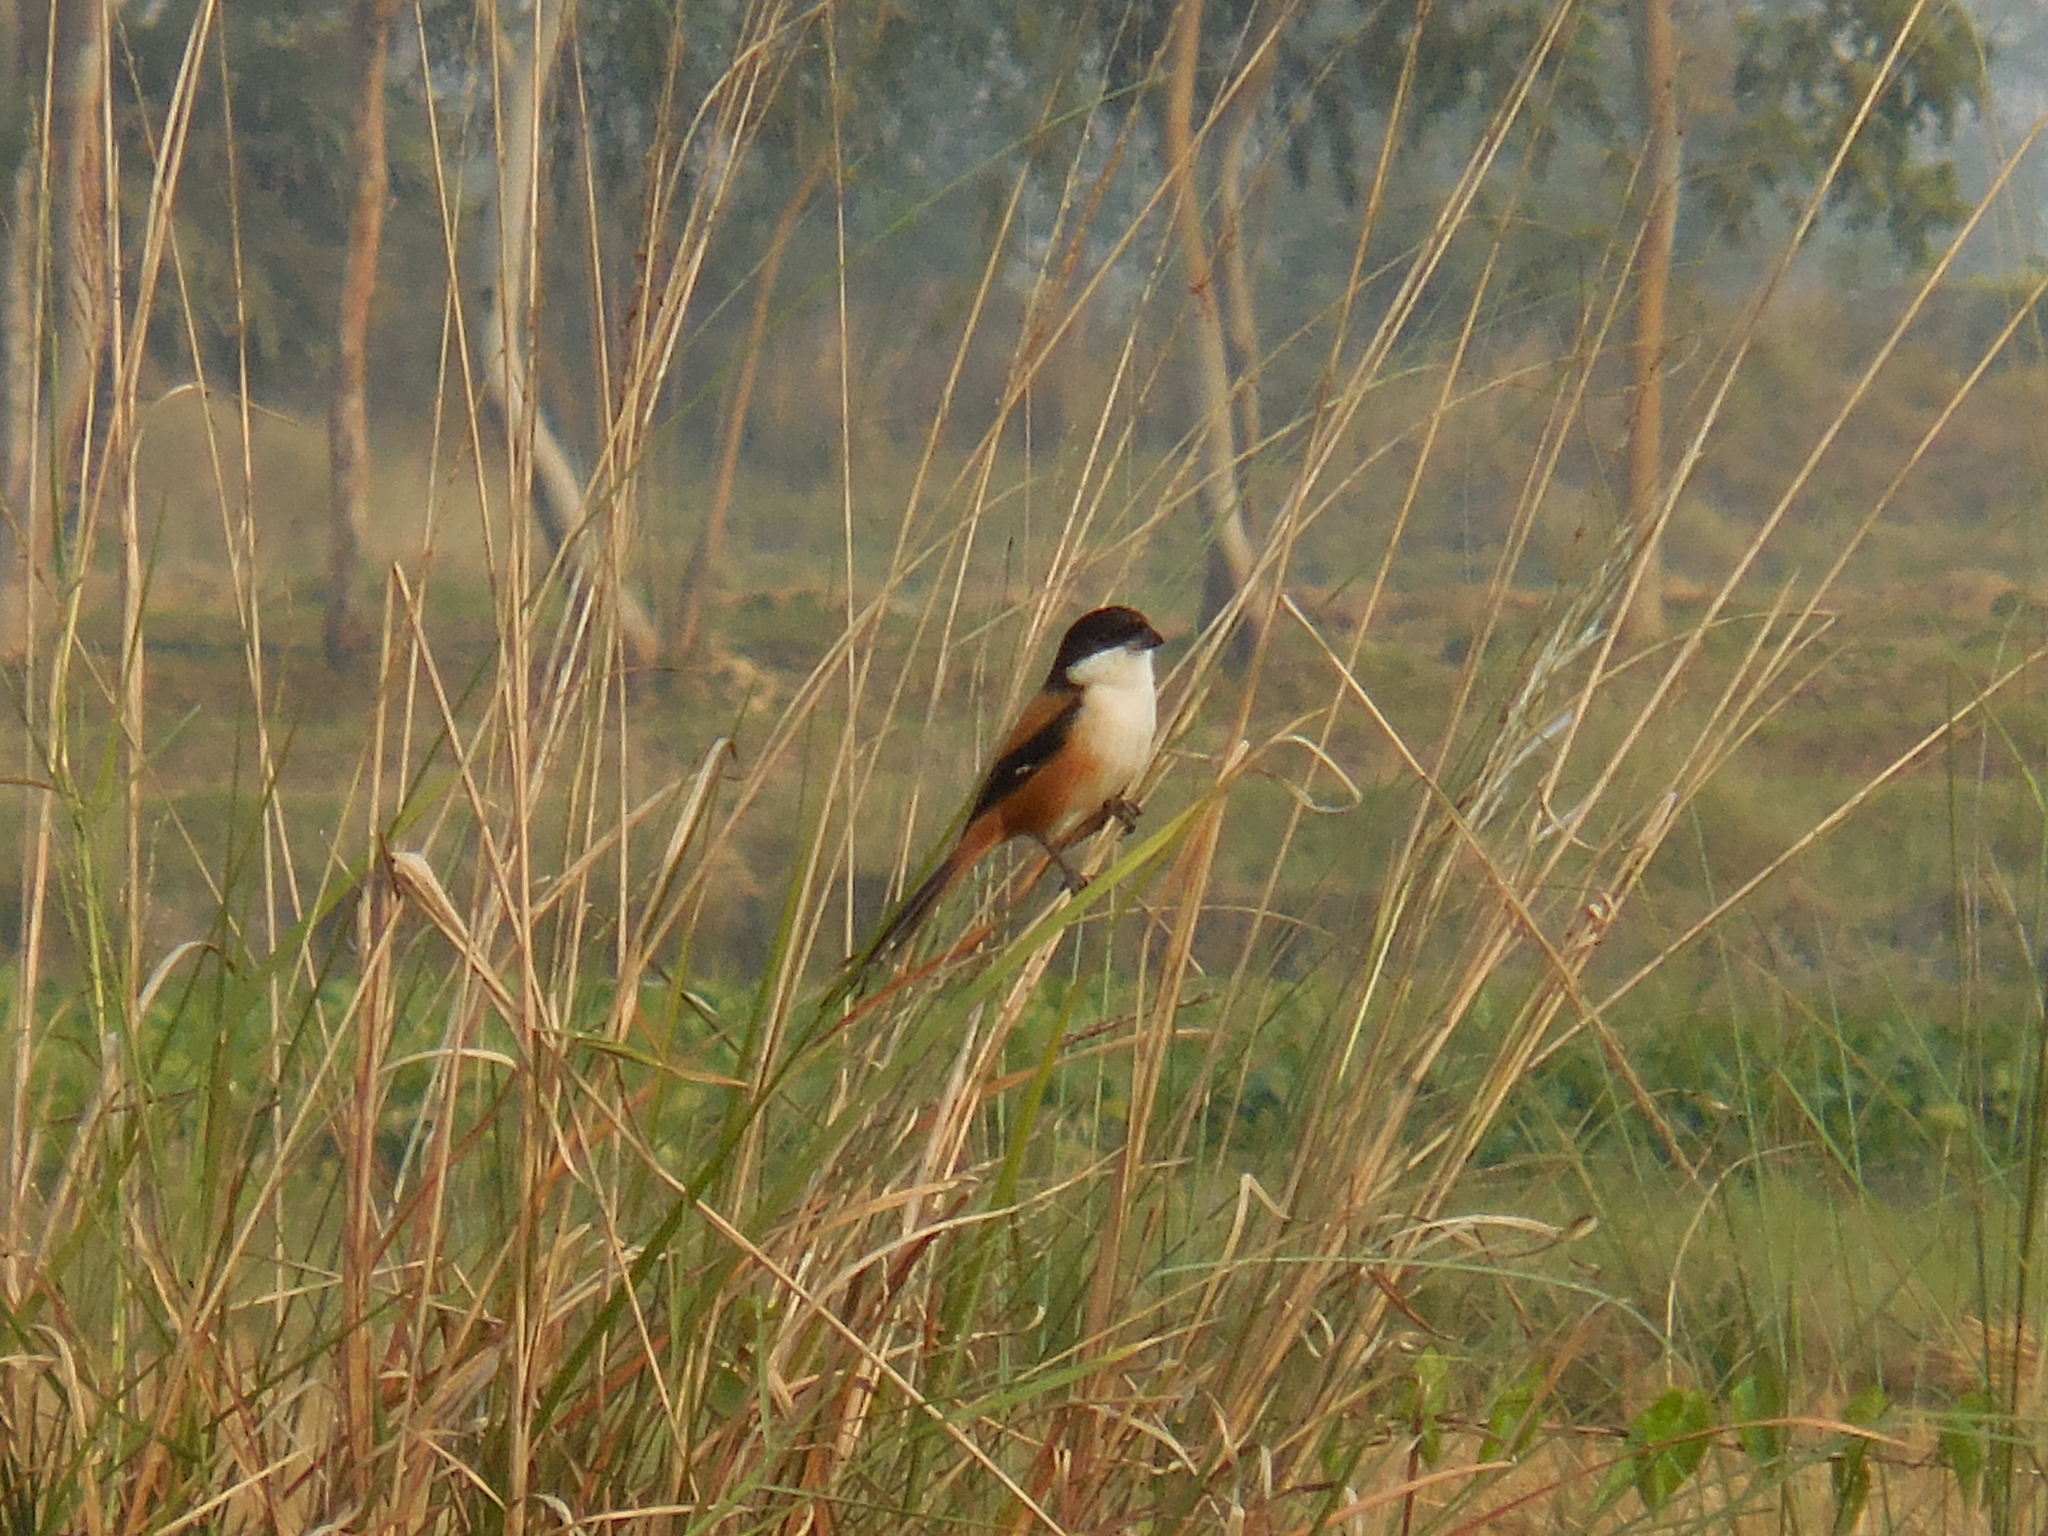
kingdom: Animalia
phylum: Chordata
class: Aves
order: Passeriformes
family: Laniidae
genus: Lanius
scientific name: Lanius schach
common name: Long-tailed shrike
